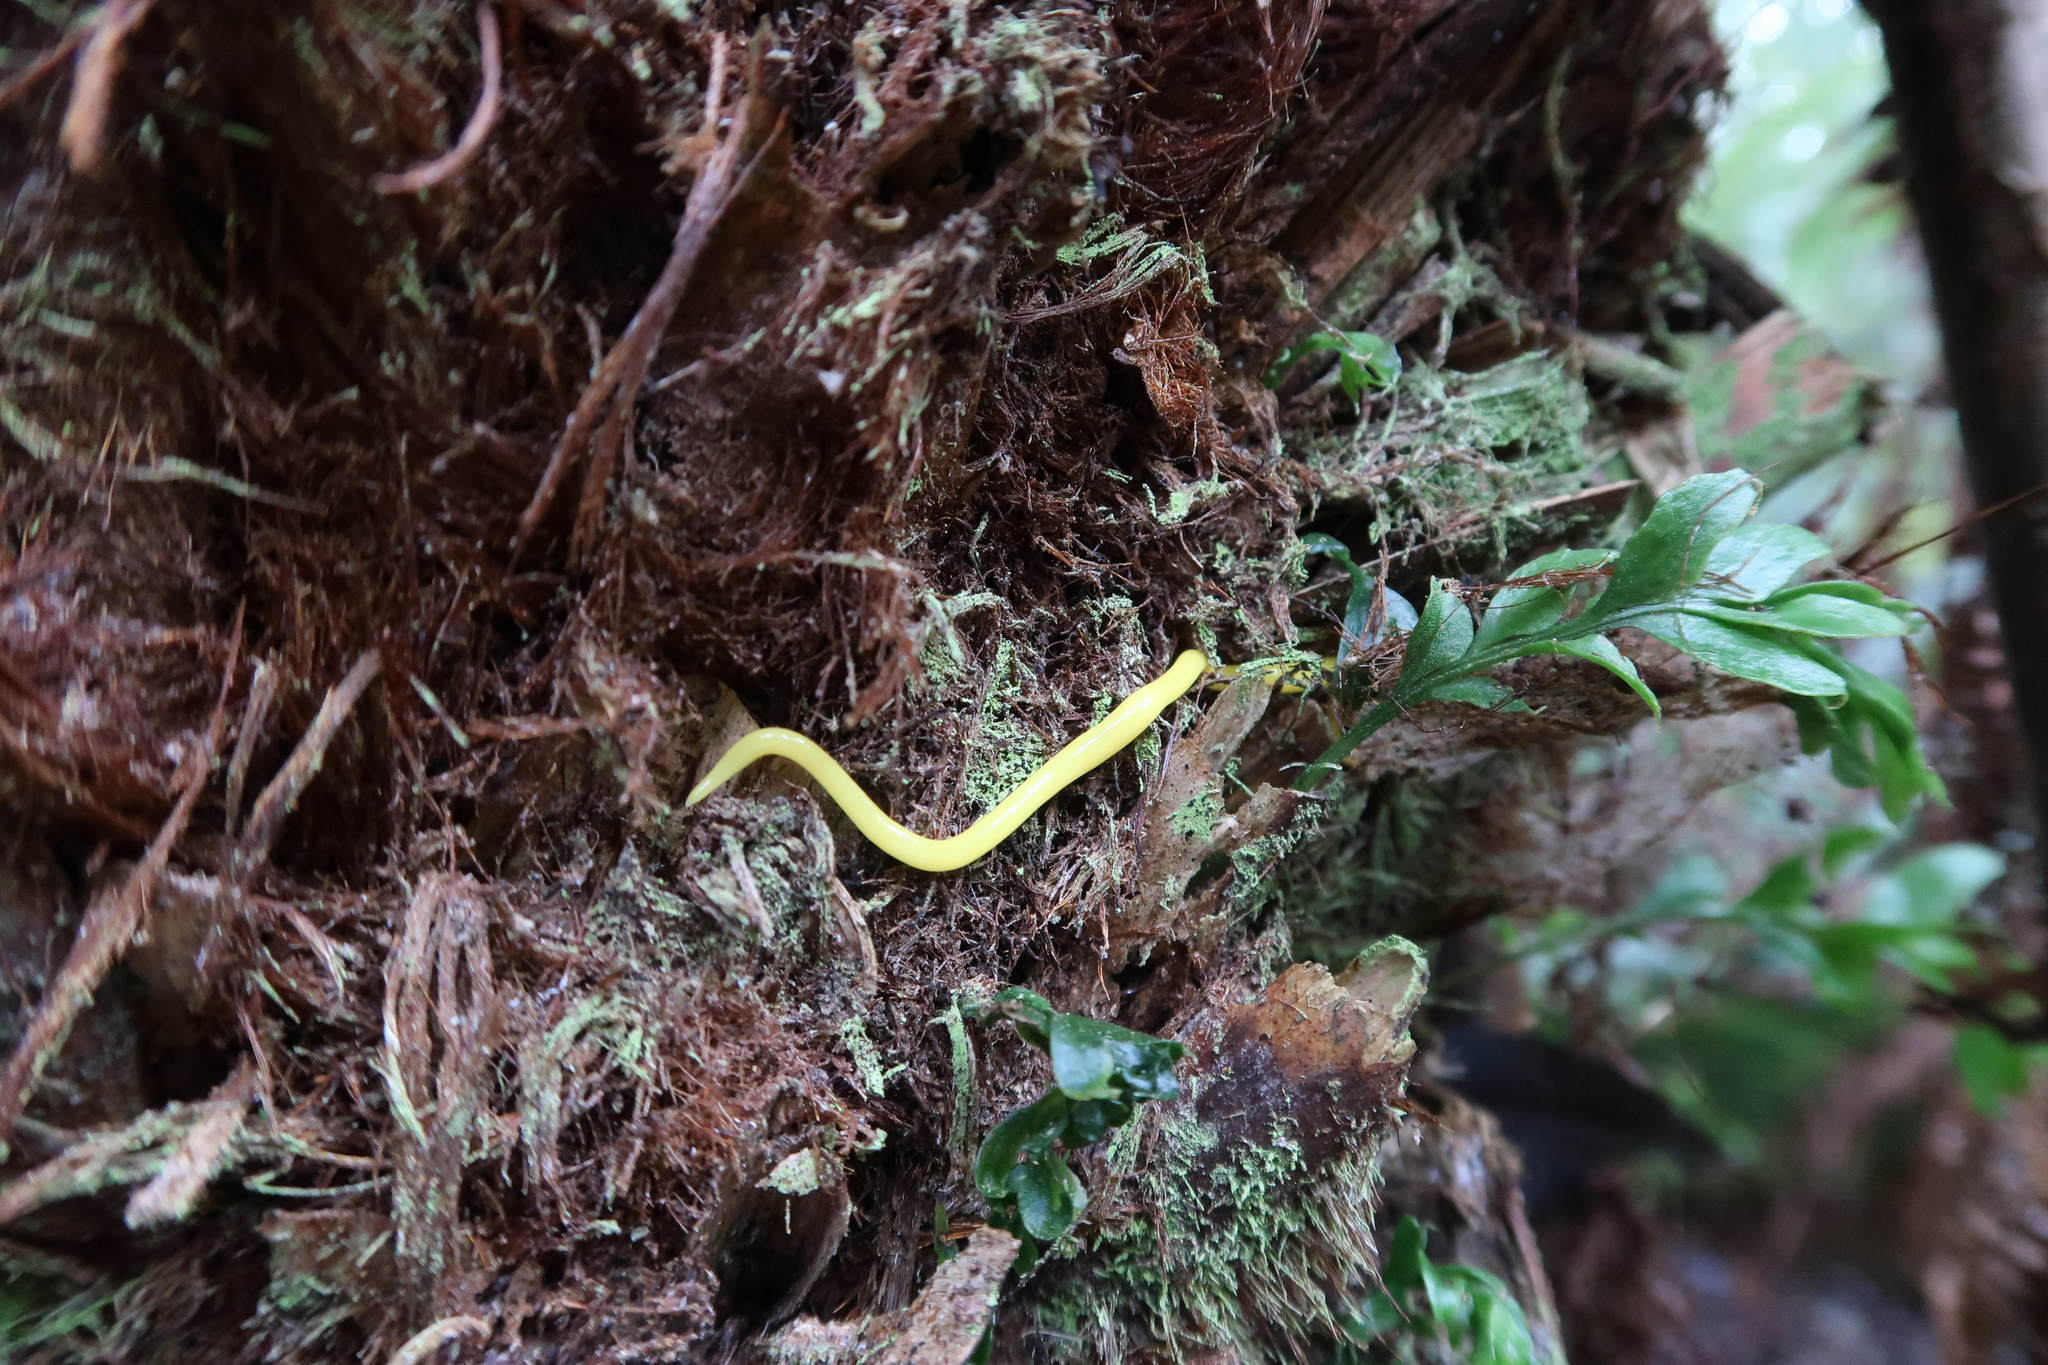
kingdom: Animalia
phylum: Platyhelminthes
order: Tricladida
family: Geoplanidae
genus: Fletchamia
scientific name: Fletchamia sugdeni
